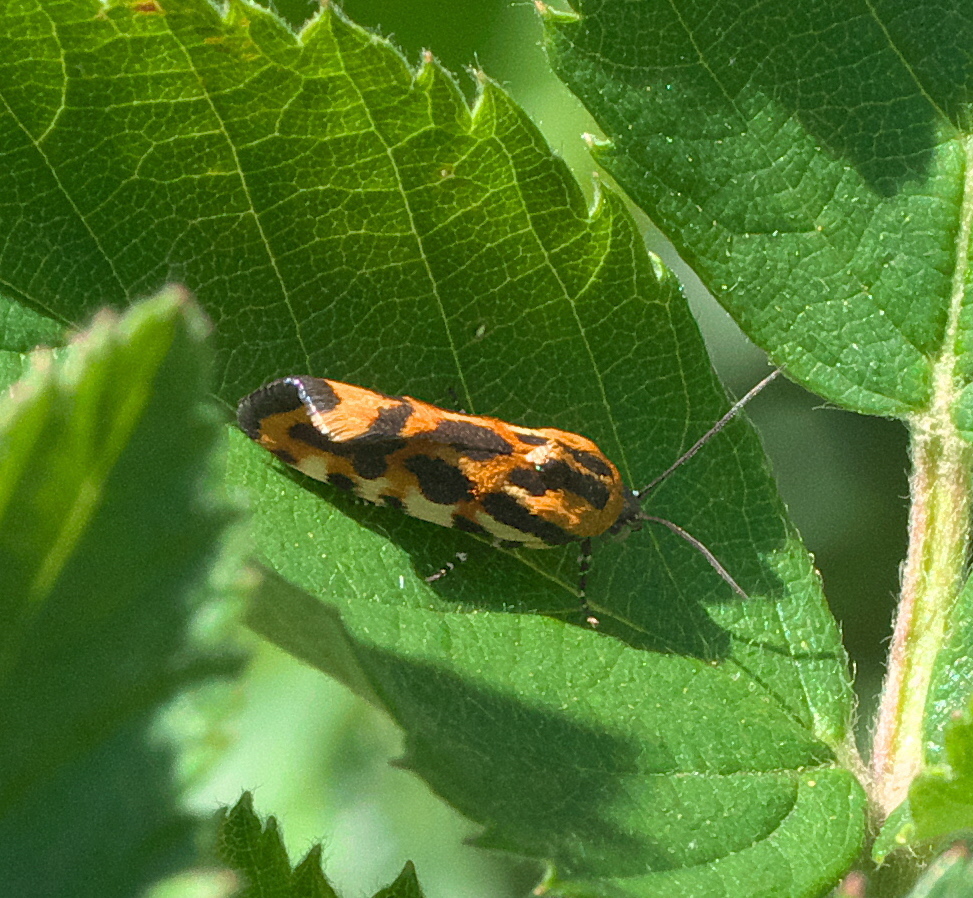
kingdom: Animalia
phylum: Arthropoda
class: Insecta
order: Lepidoptera
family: Noctuidae
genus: Acontia
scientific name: Acontia leo
